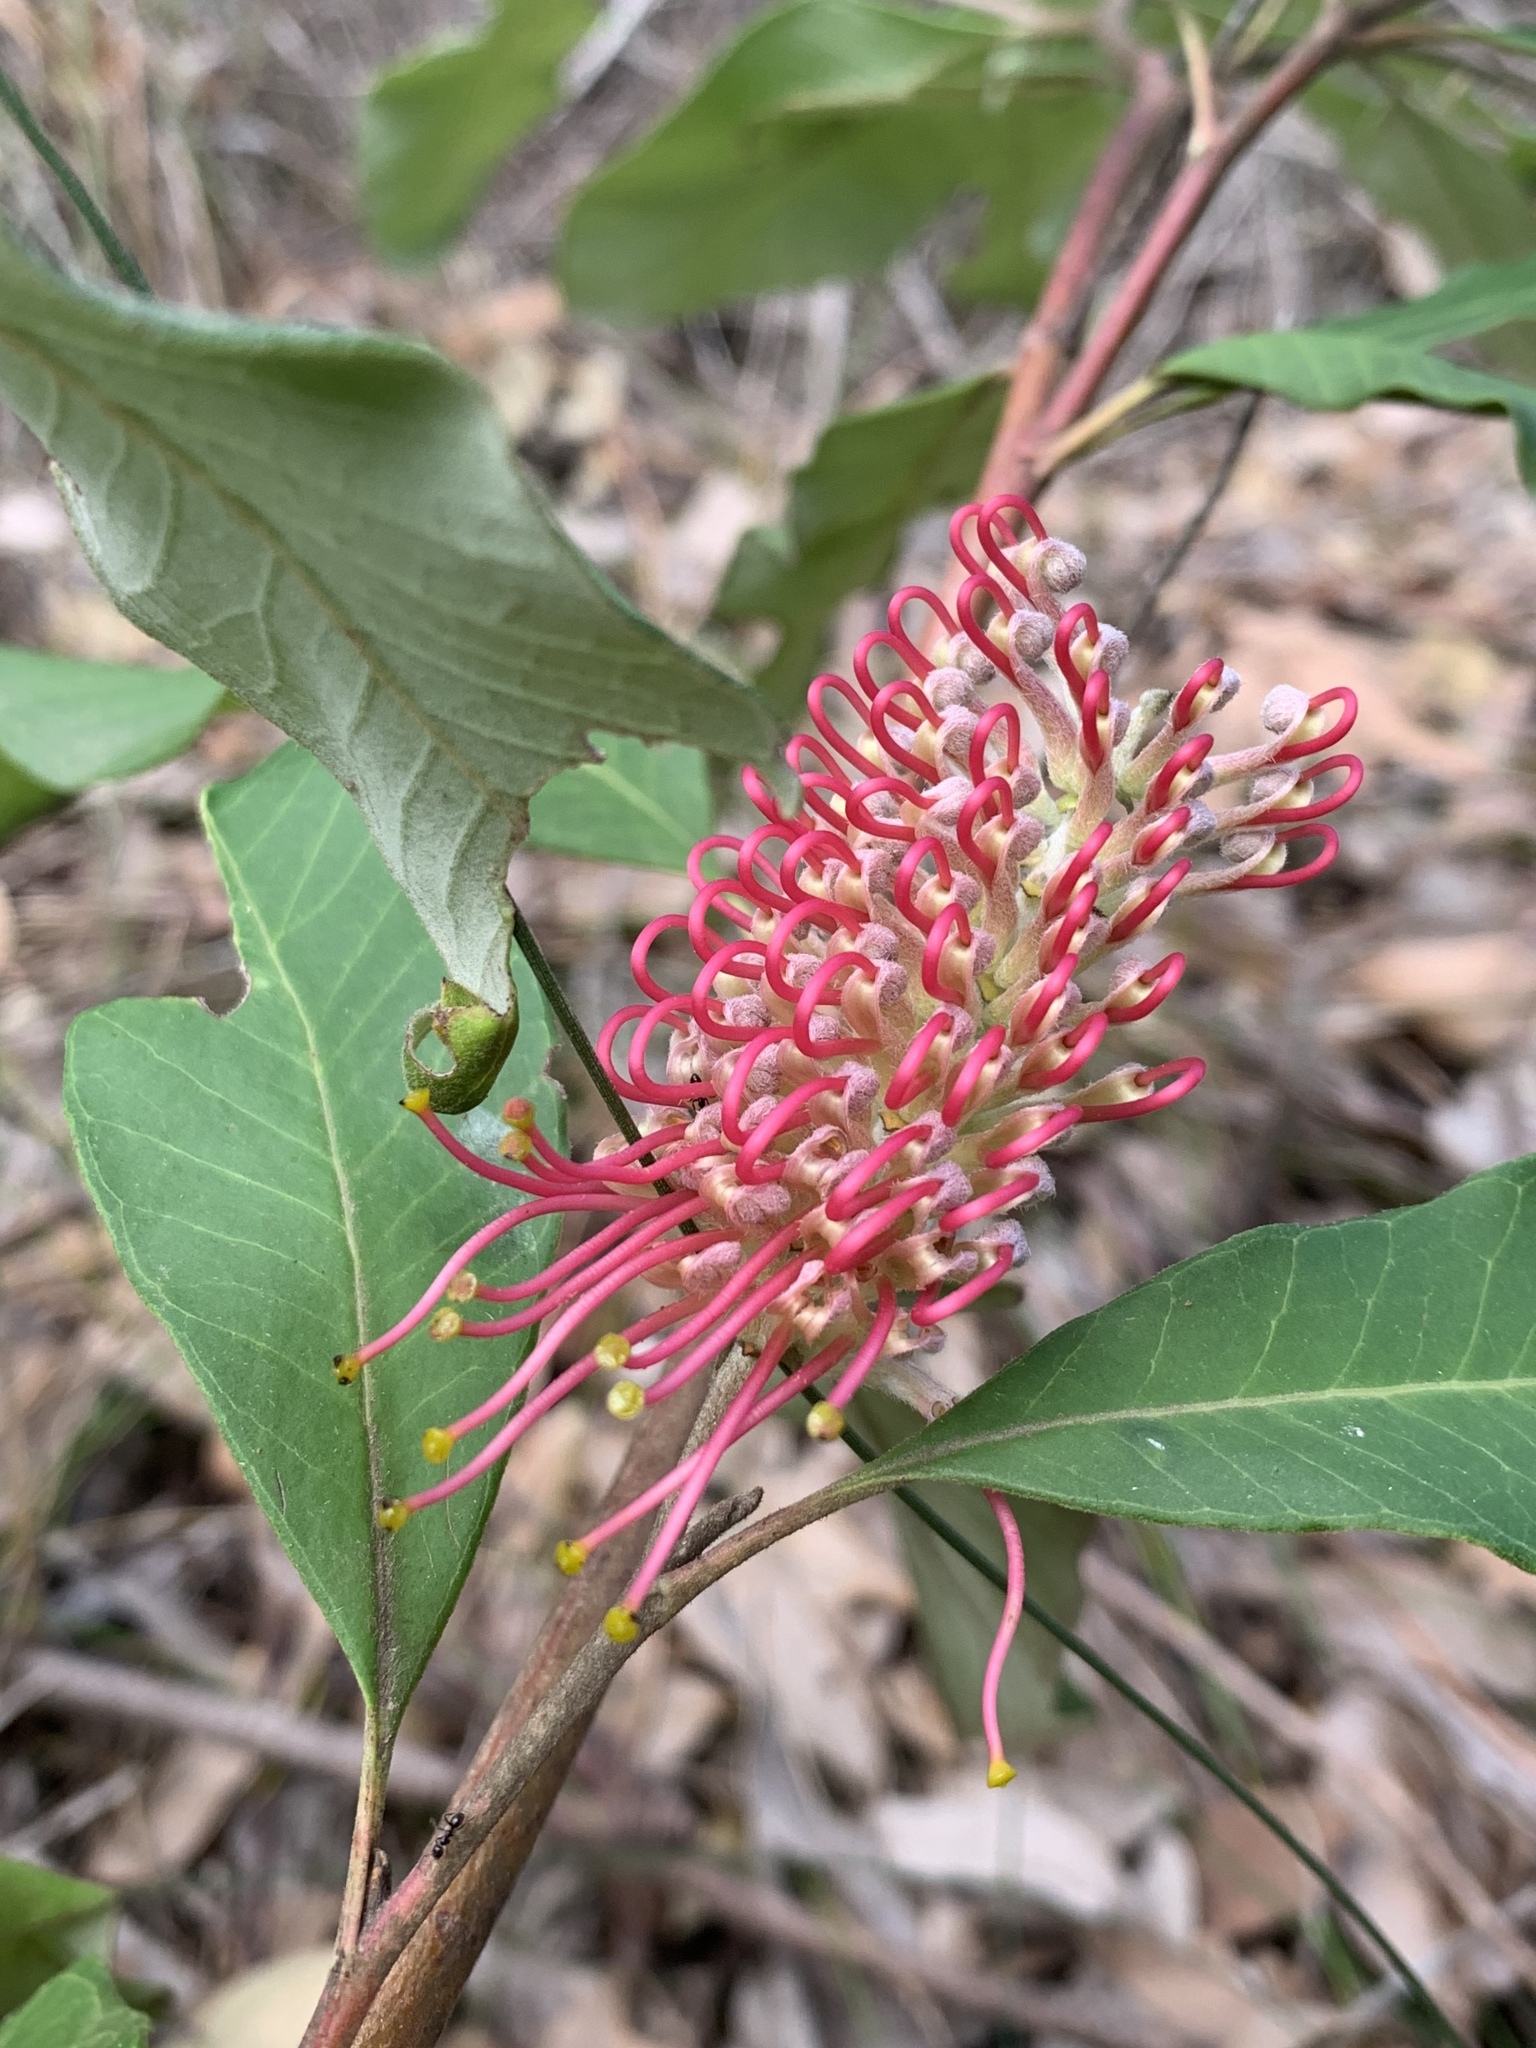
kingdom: Plantae
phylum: Tracheophyta
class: Magnoliopsida
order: Proteales
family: Proteaceae
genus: Grevillea
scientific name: Grevillea macleayana
